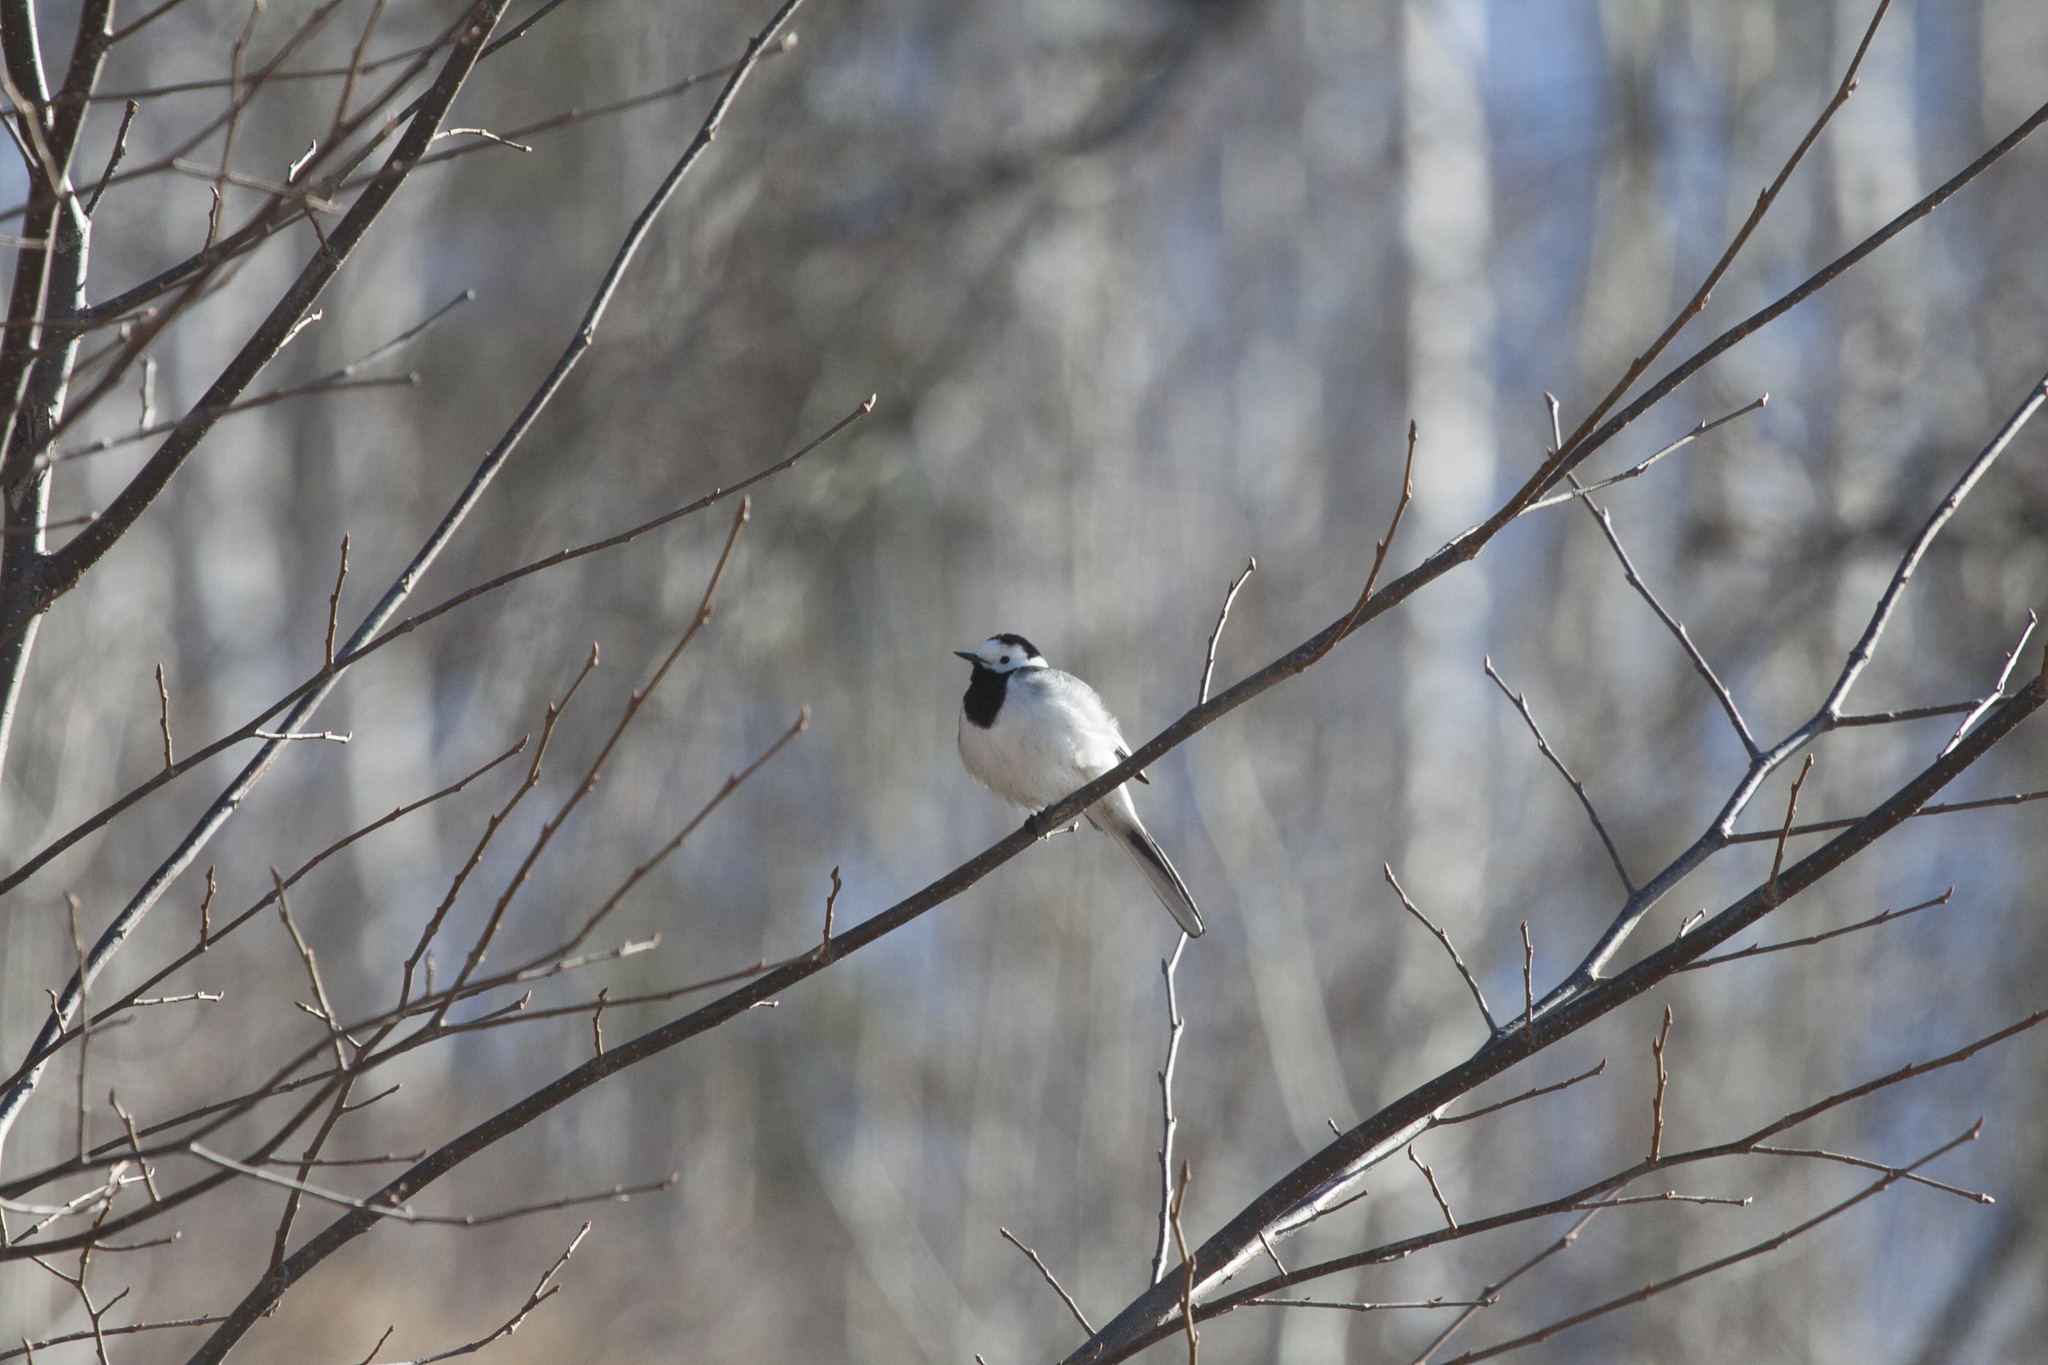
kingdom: Animalia
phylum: Chordata
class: Aves
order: Passeriformes
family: Motacillidae
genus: Motacilla
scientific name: Motacilla alba
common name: White wagtail
